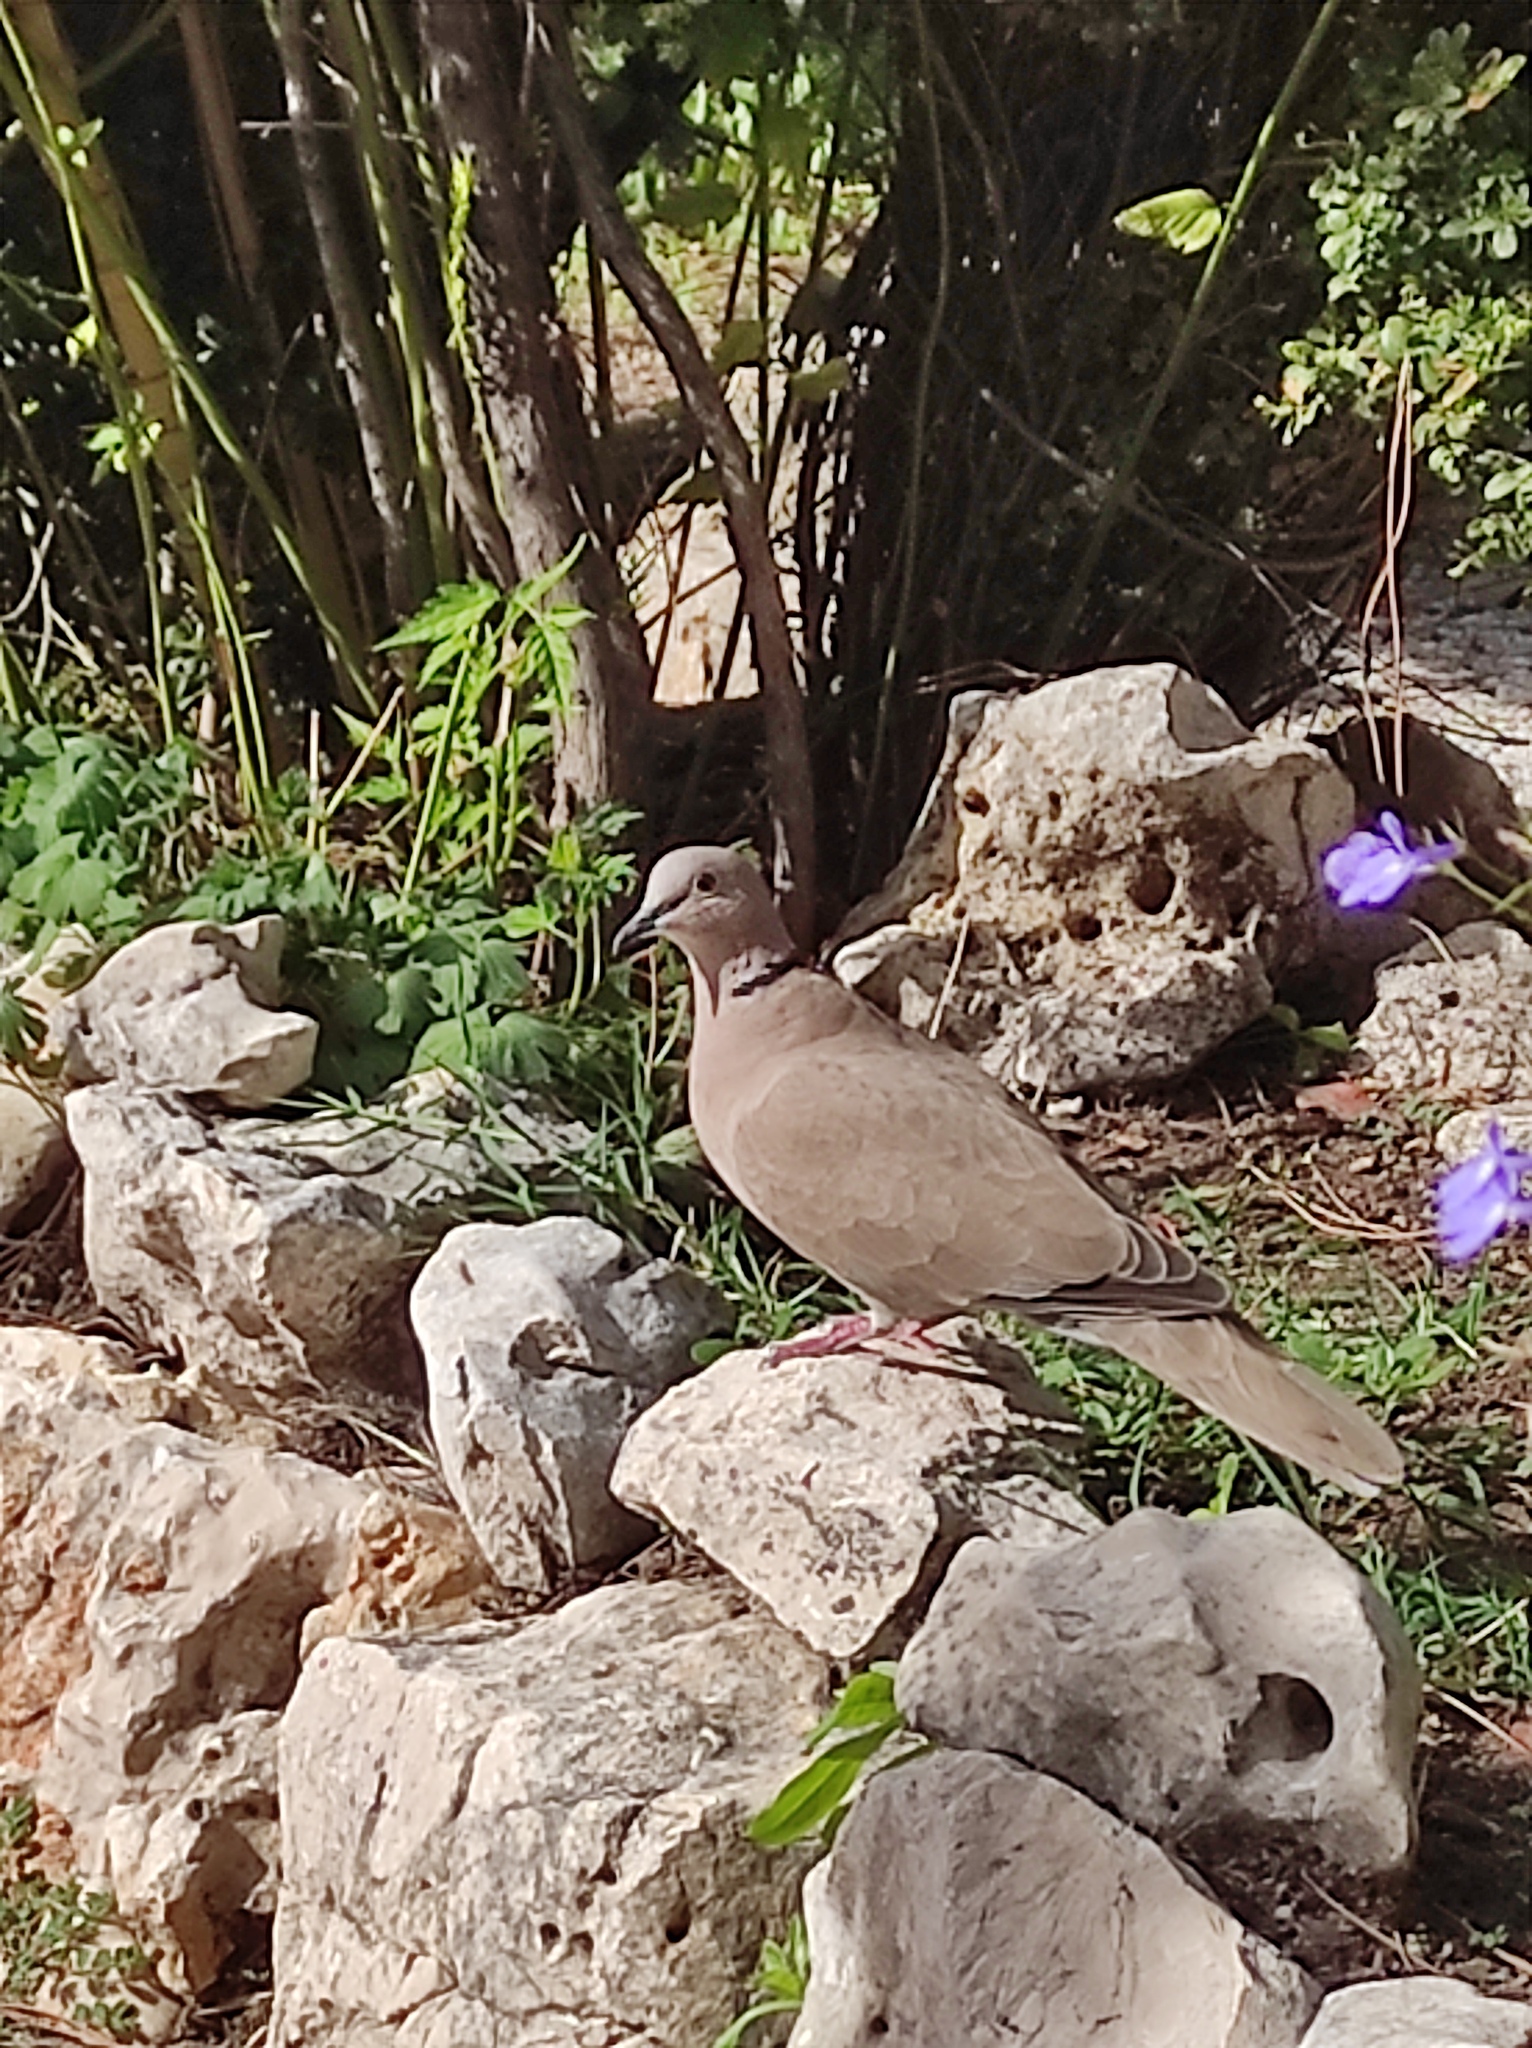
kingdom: Animalia
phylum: Chordata
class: Aves
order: Columbiformes
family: Columbidae
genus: Streptopelia
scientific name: Streptopelia decaocto
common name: Eurasian collared dove
